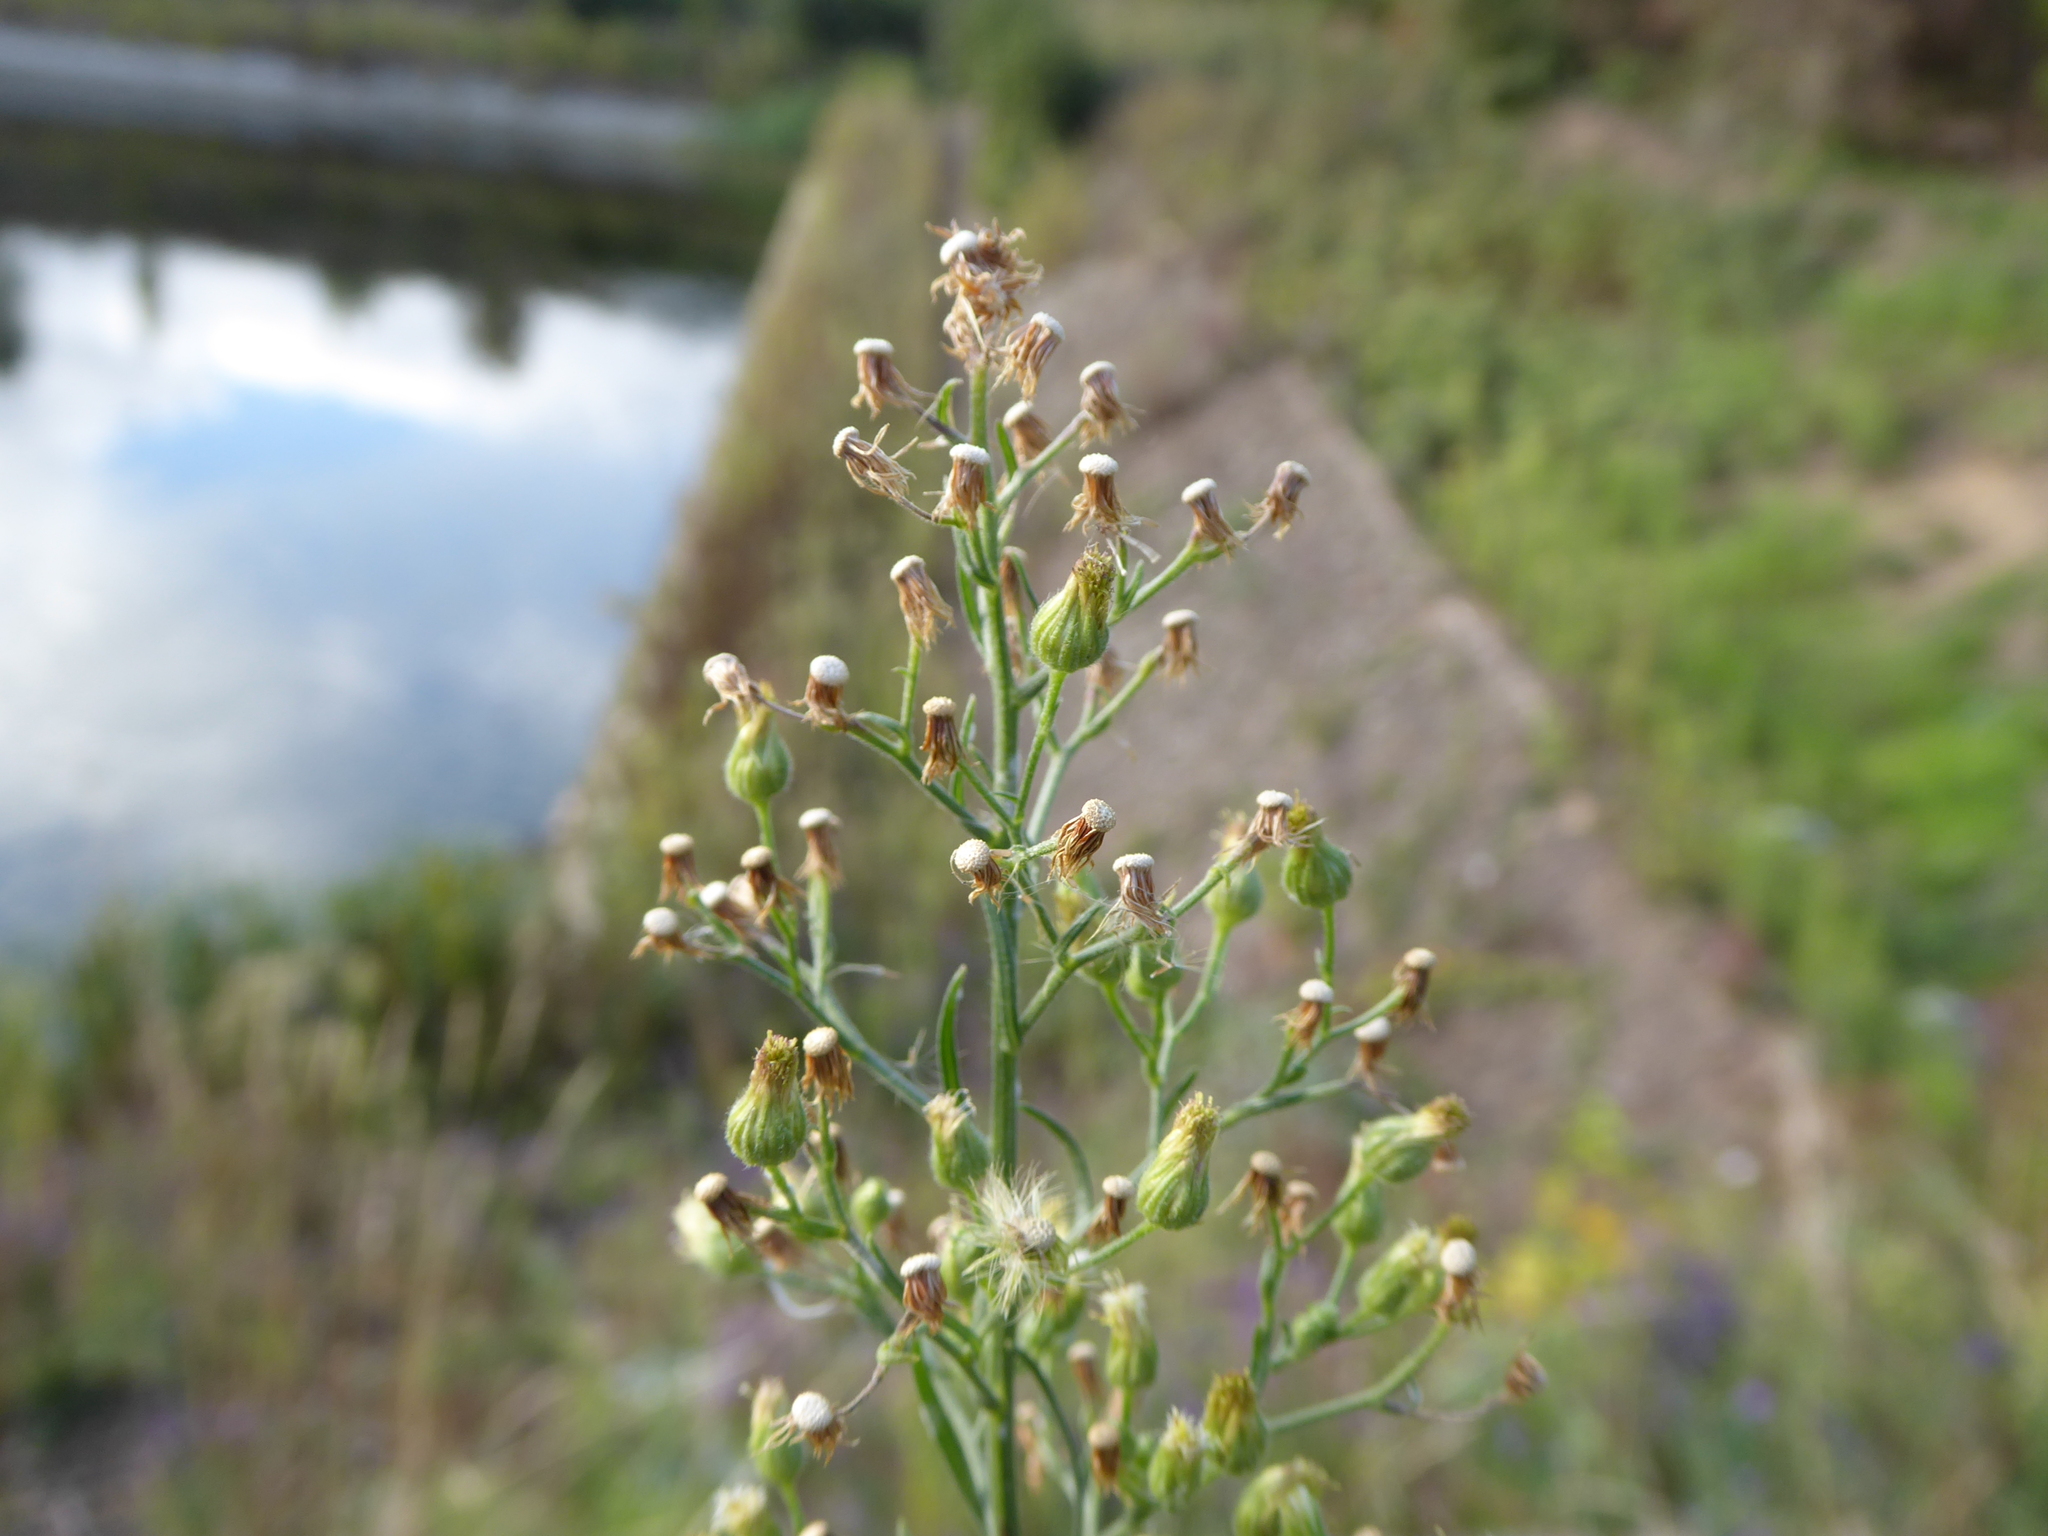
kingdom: Plantae
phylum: Tracheophyta
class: Magnoliopsida
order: Asterales
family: Asteraceae
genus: Erigeron
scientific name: Erigeron sumatrensis
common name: Daisy
